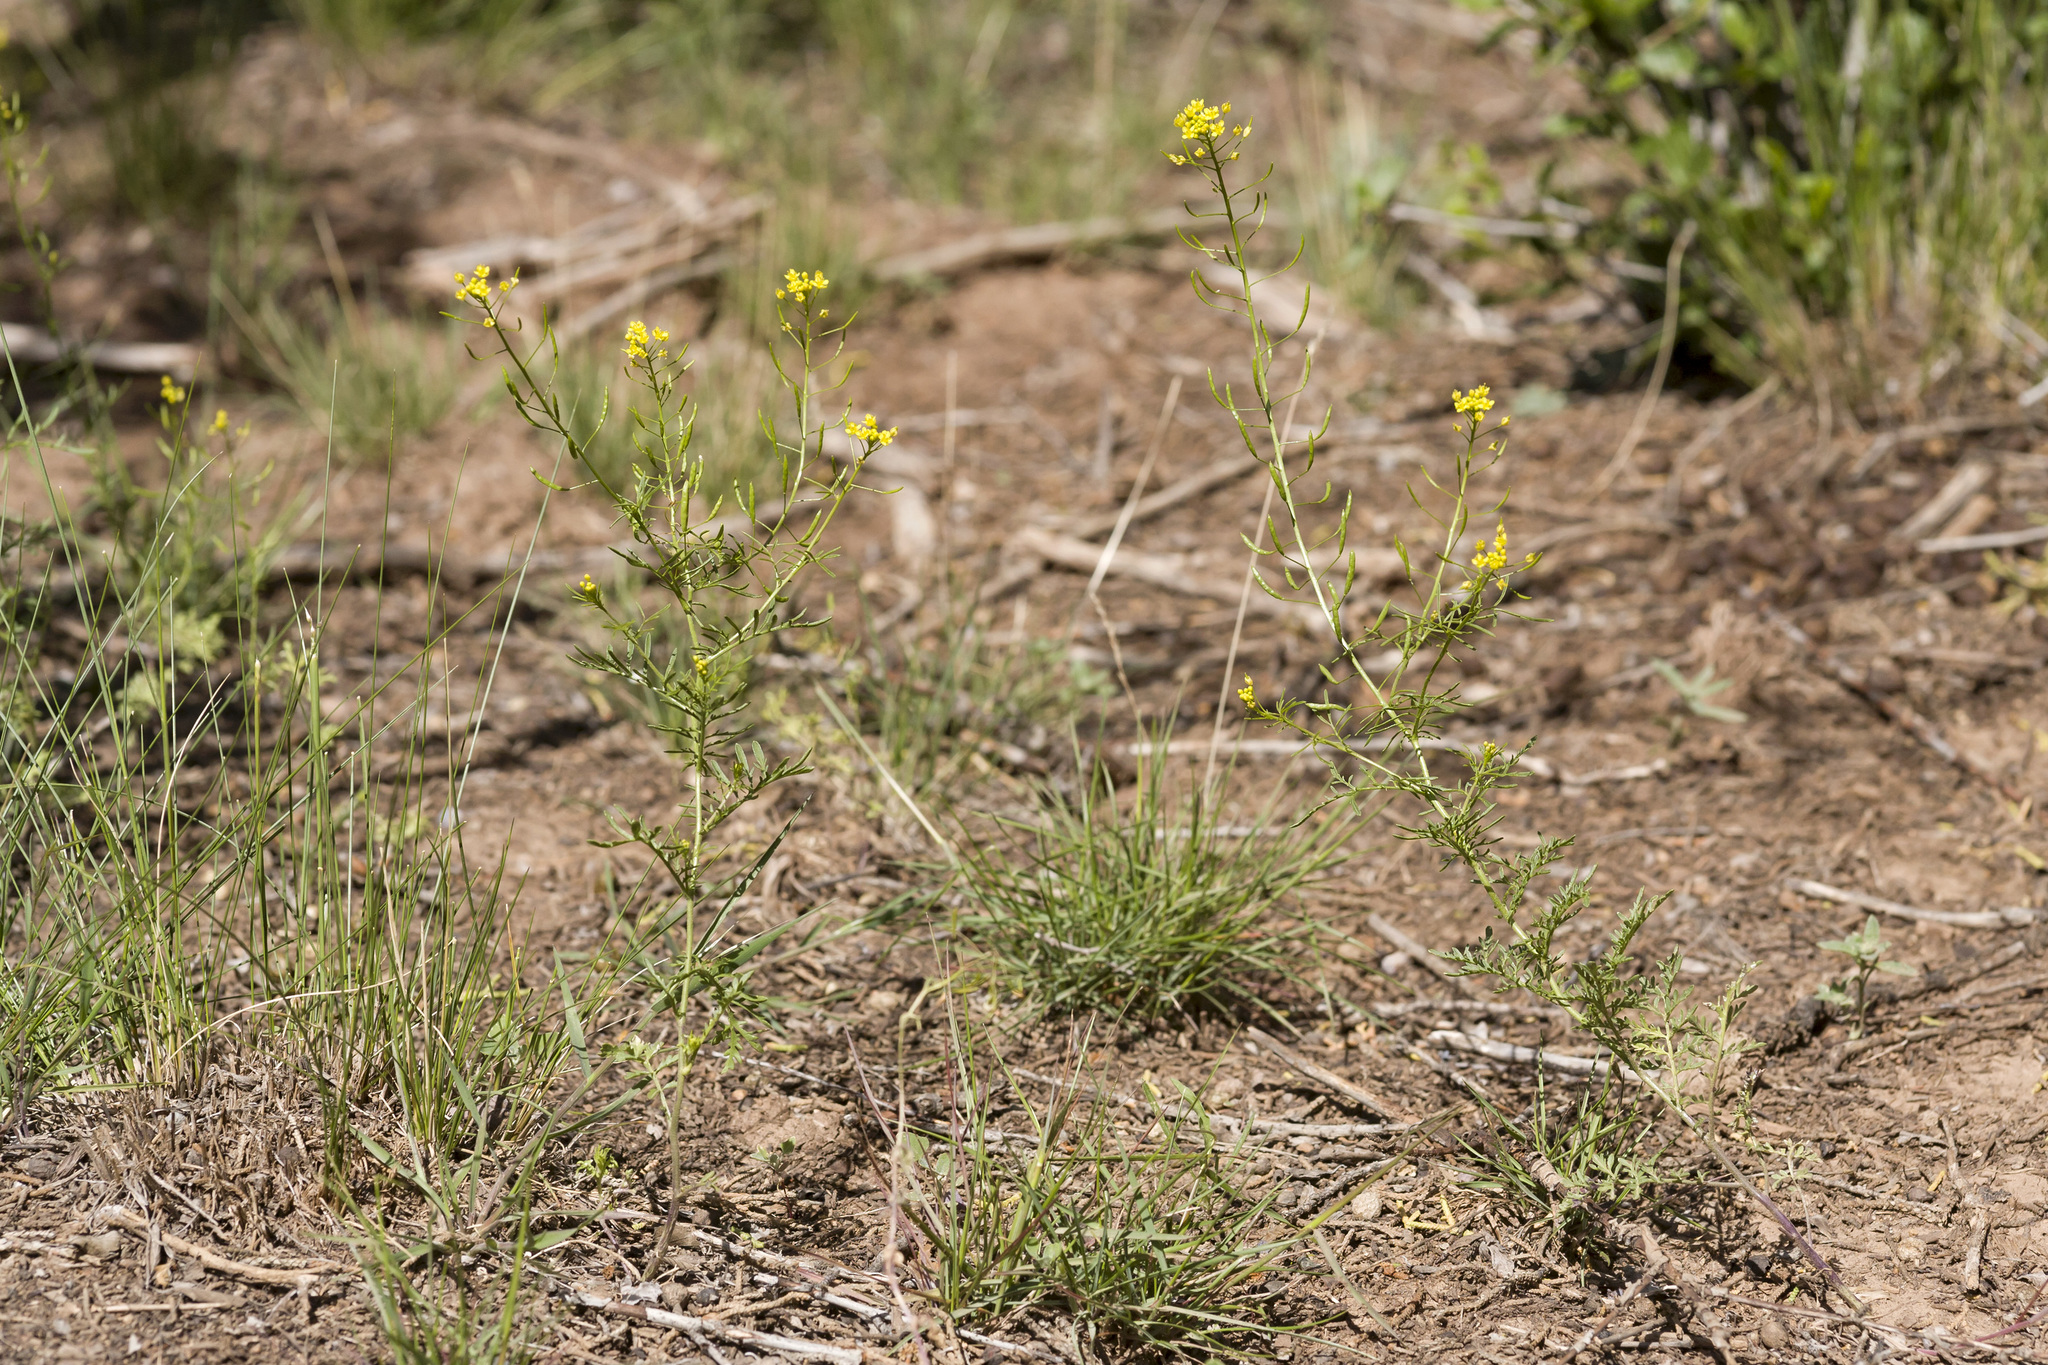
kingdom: Plantae
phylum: Tracheophyta
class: Magnoliopsida
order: Brassicales
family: Brassicaceae
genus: Descurainia
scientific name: Descurainia pinnata
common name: Western tansy mustard
